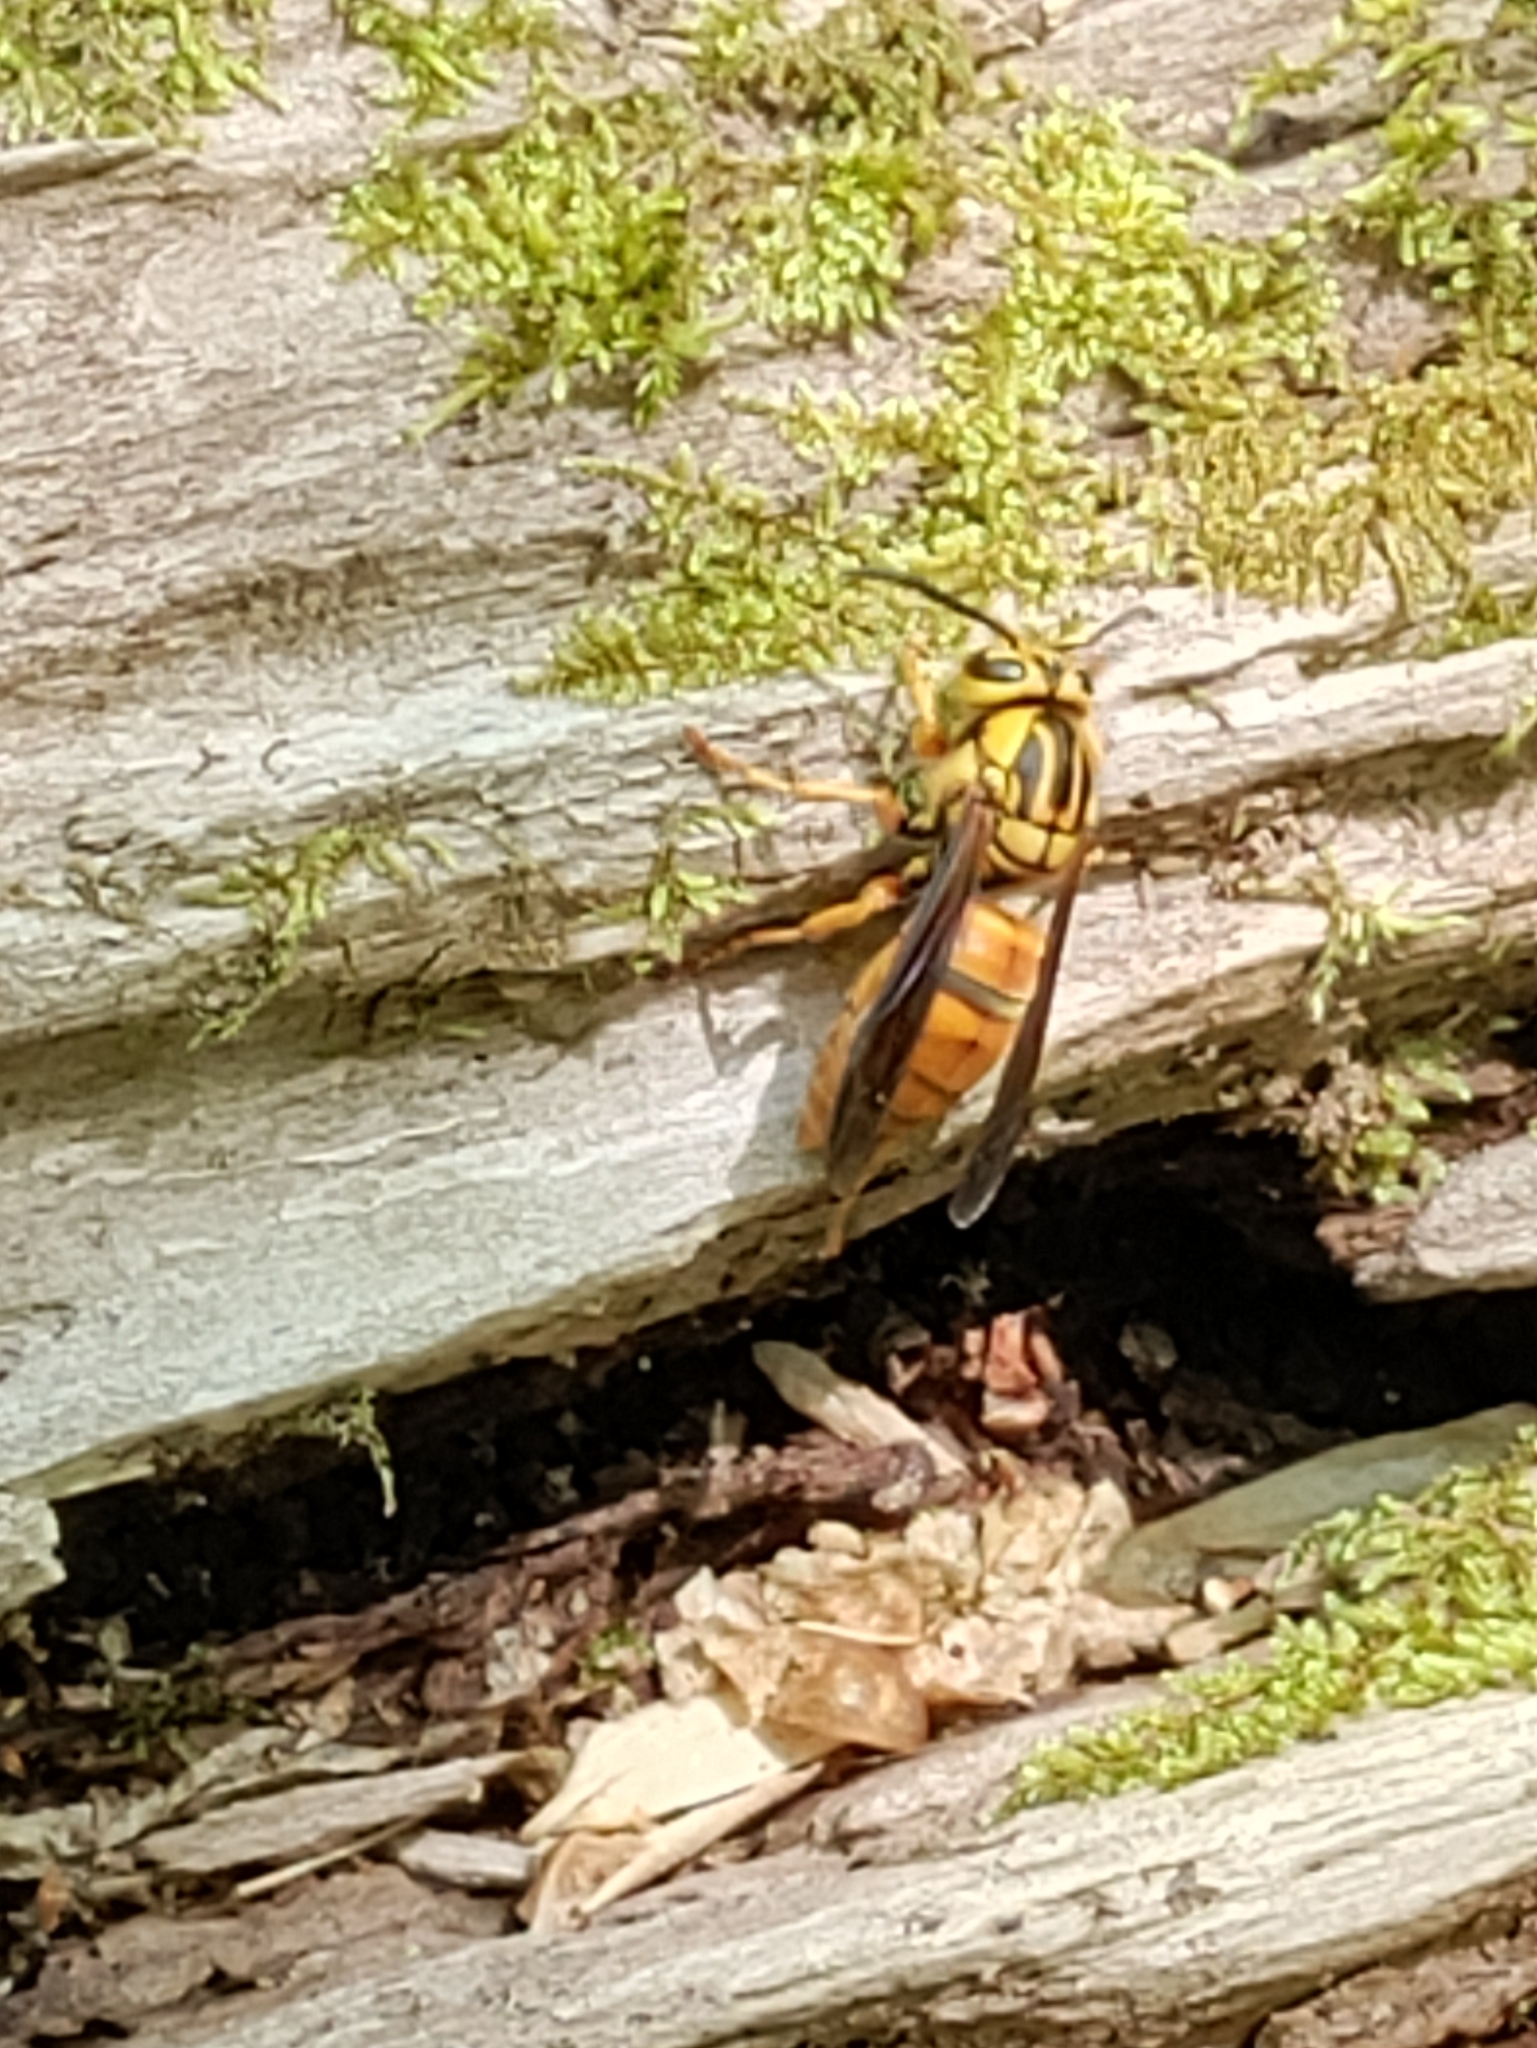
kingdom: Animalia
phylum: Arthropoda
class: Insecta
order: Hymenoptera
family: Vespidae
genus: Vespula
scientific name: Vespula squamosa
